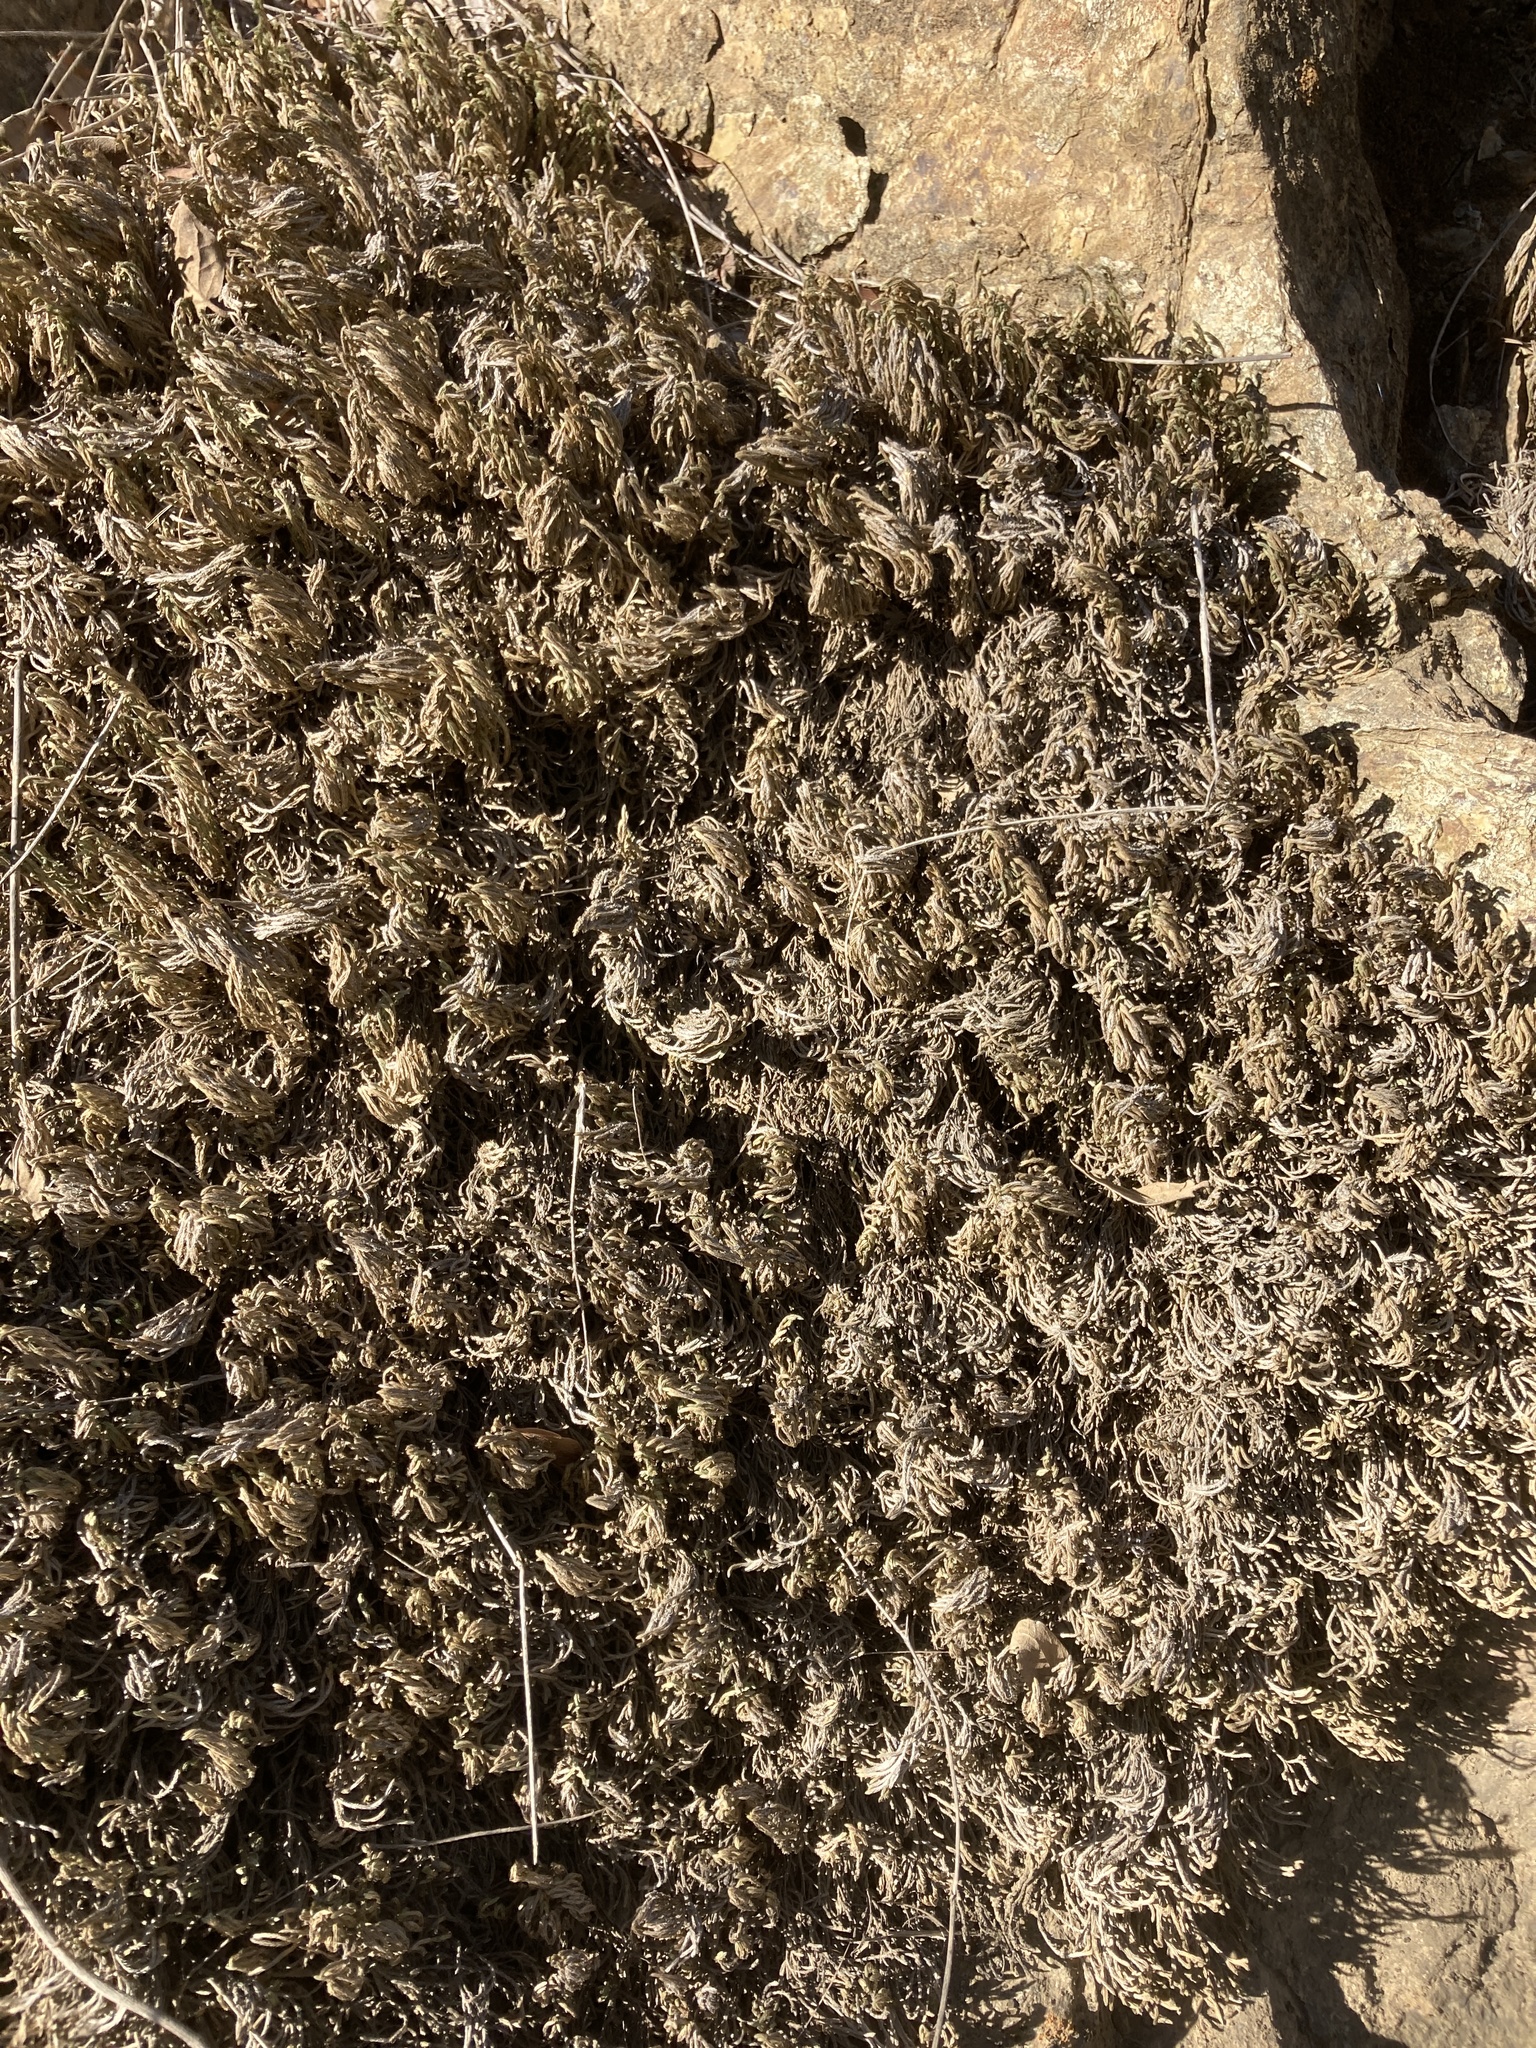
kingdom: Plantae
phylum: Tracheophyta
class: Lycopodiopsida
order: Selaginellales
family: Selaginellaceae
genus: Selaginella
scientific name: Selaginella bigelovii
